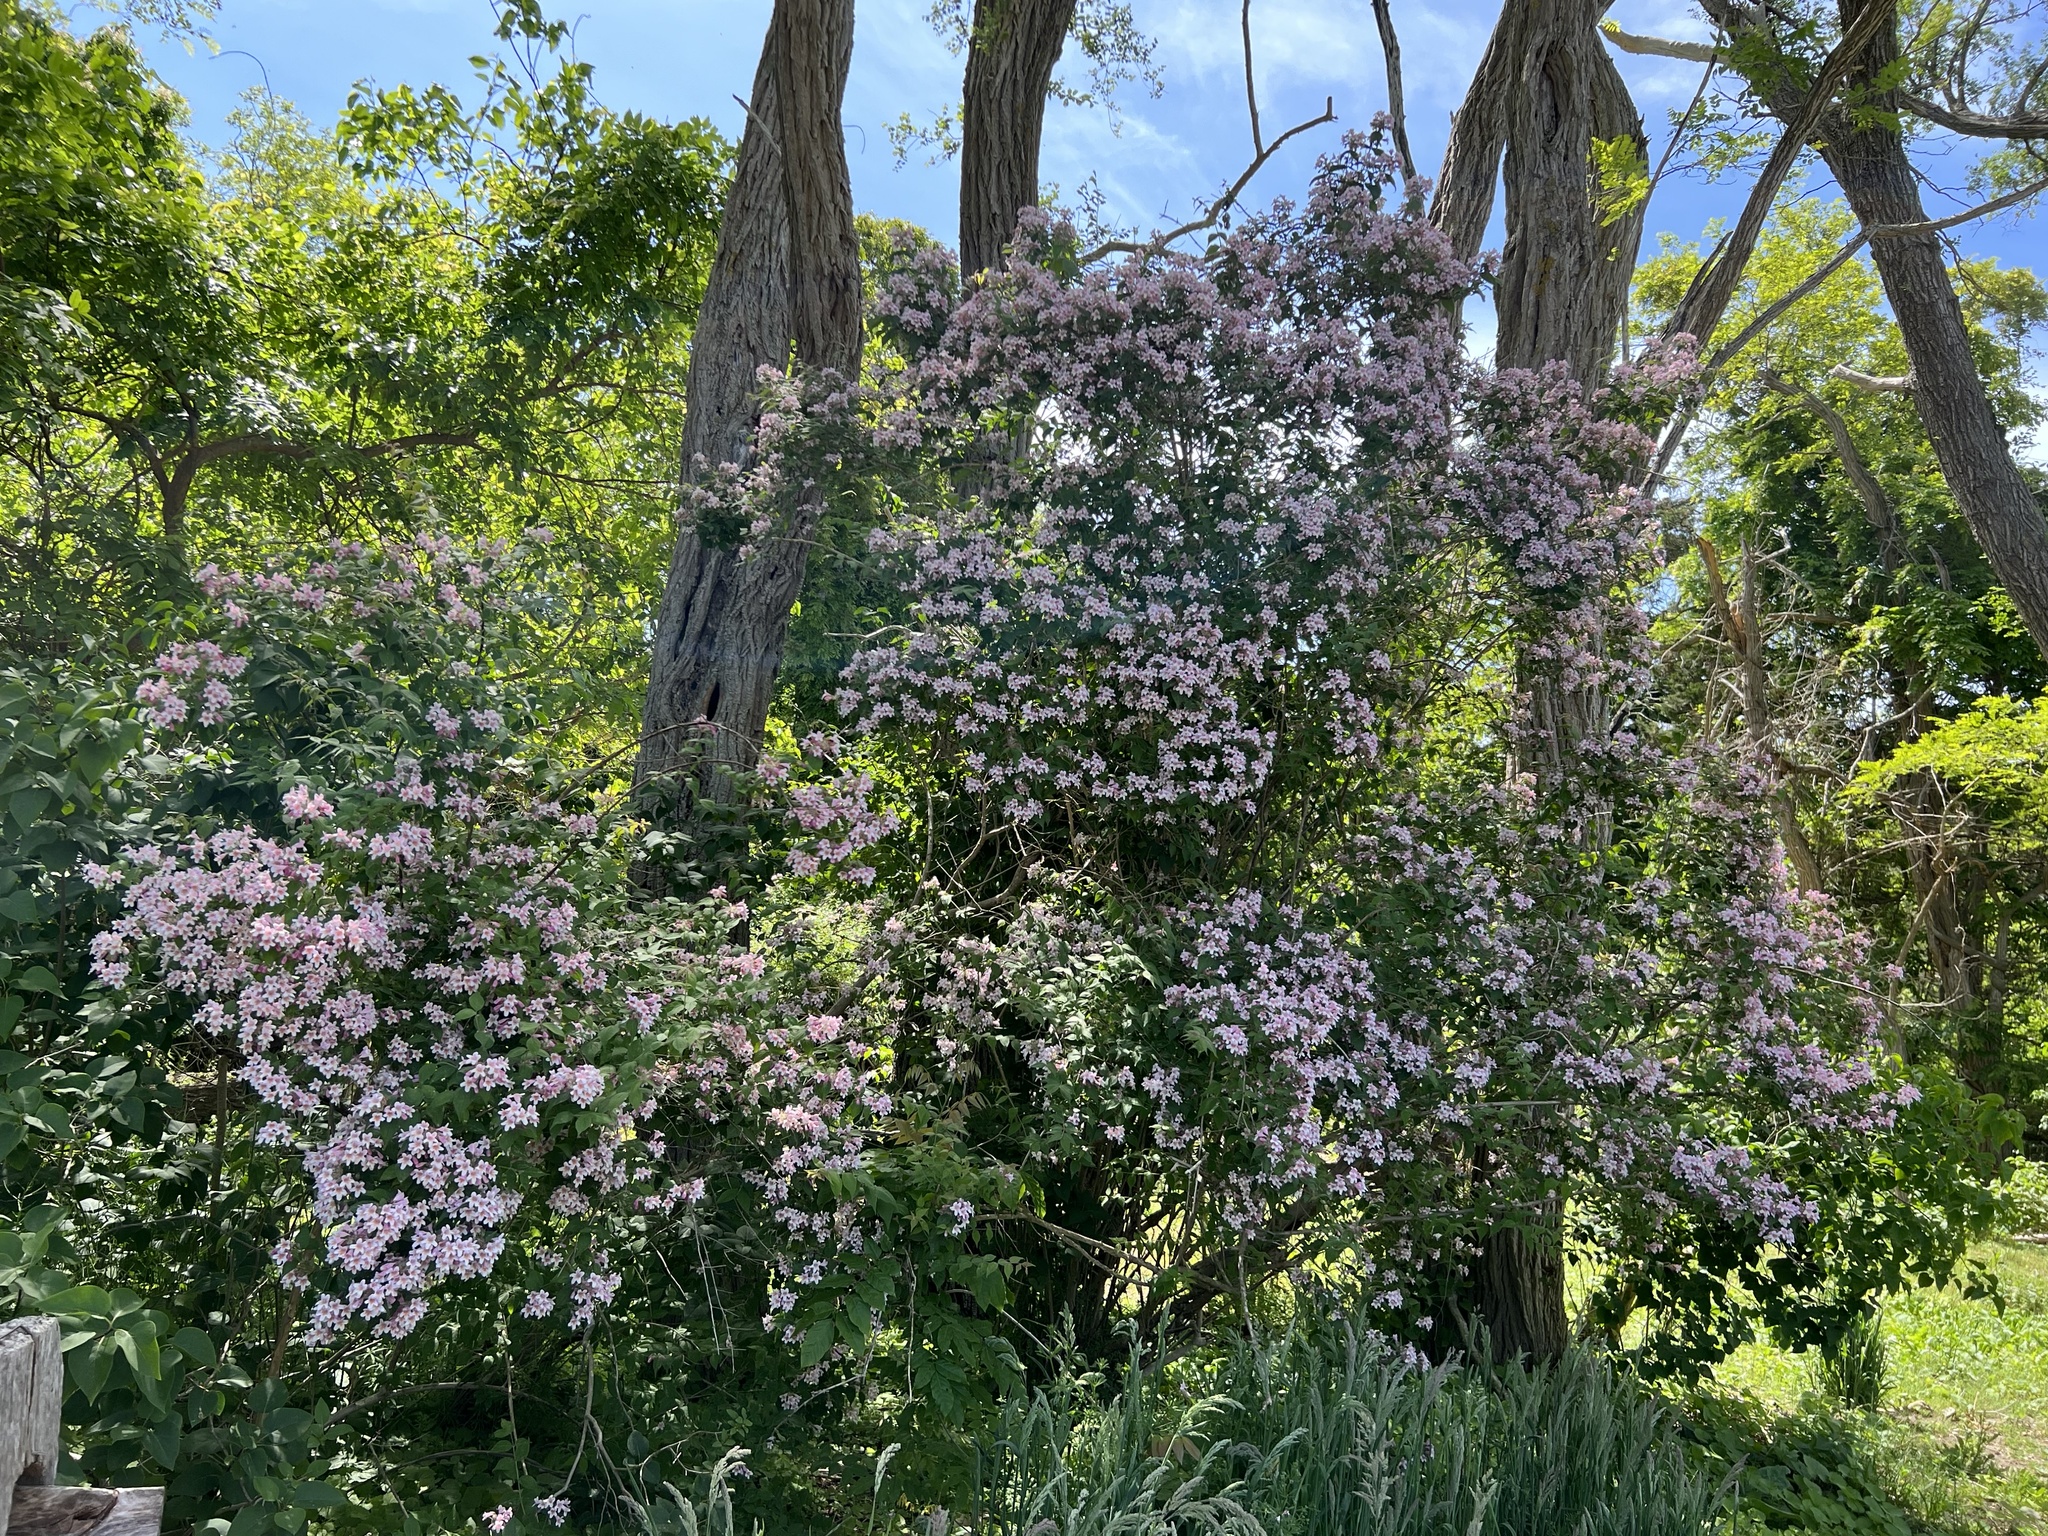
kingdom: Plantae
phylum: Tracheophyta
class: Magnoliopsida
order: Dipsacales
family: Caprifoliaceae
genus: Kolkwitzia
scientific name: Kolkwitzia amabilis
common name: Beautybush
